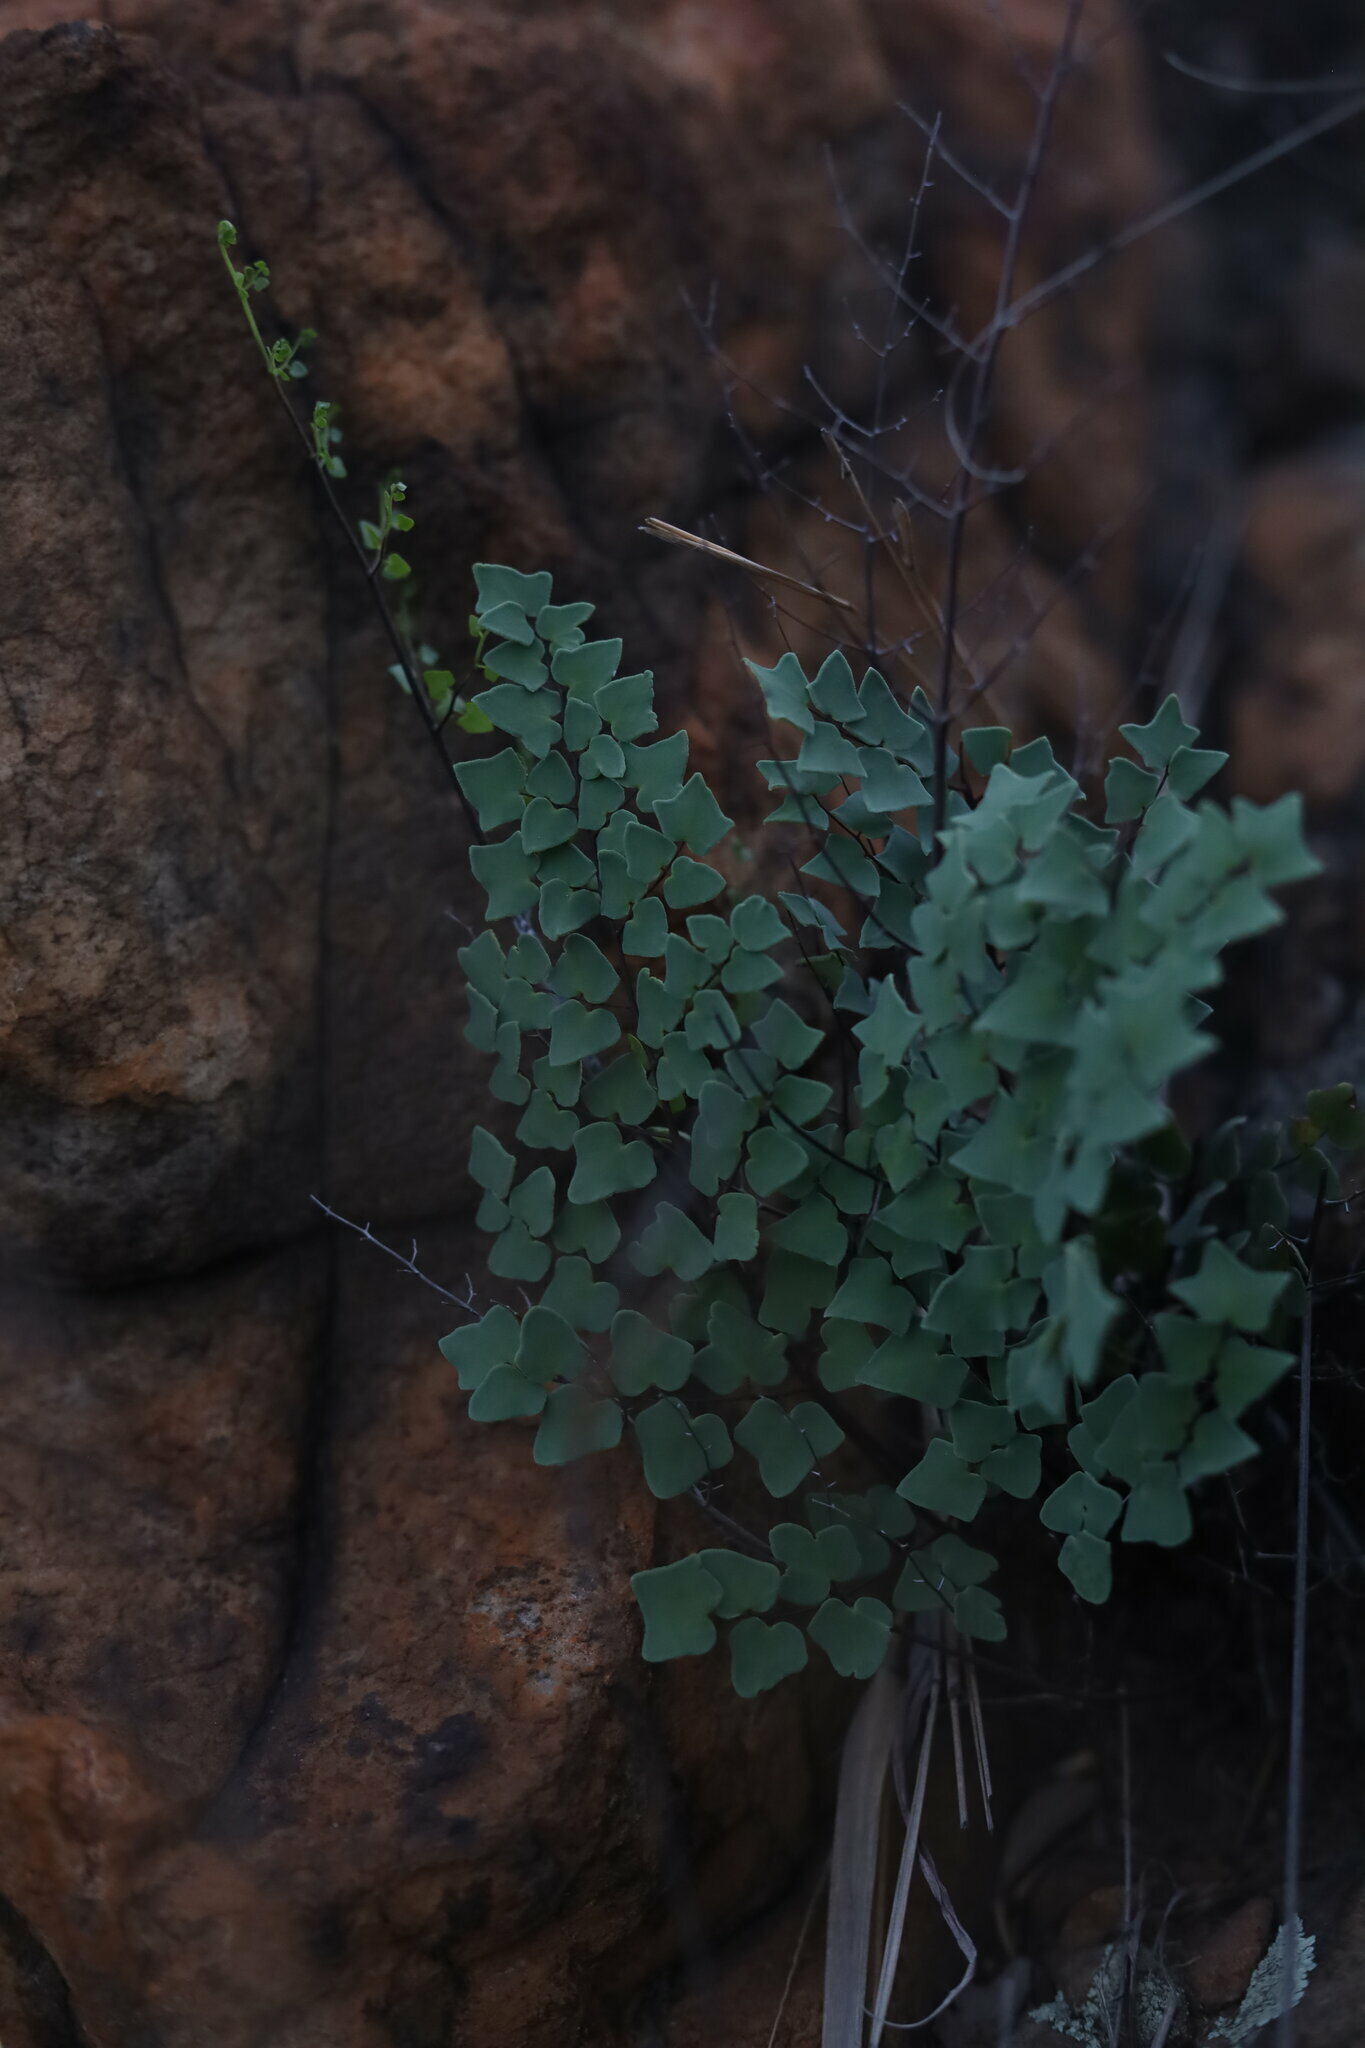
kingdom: Plantae
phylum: Tracheophyta
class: Polypodiopsida
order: Polypodiales
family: Pteridaceae
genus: Pellaea
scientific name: Pellaea calomelanos
